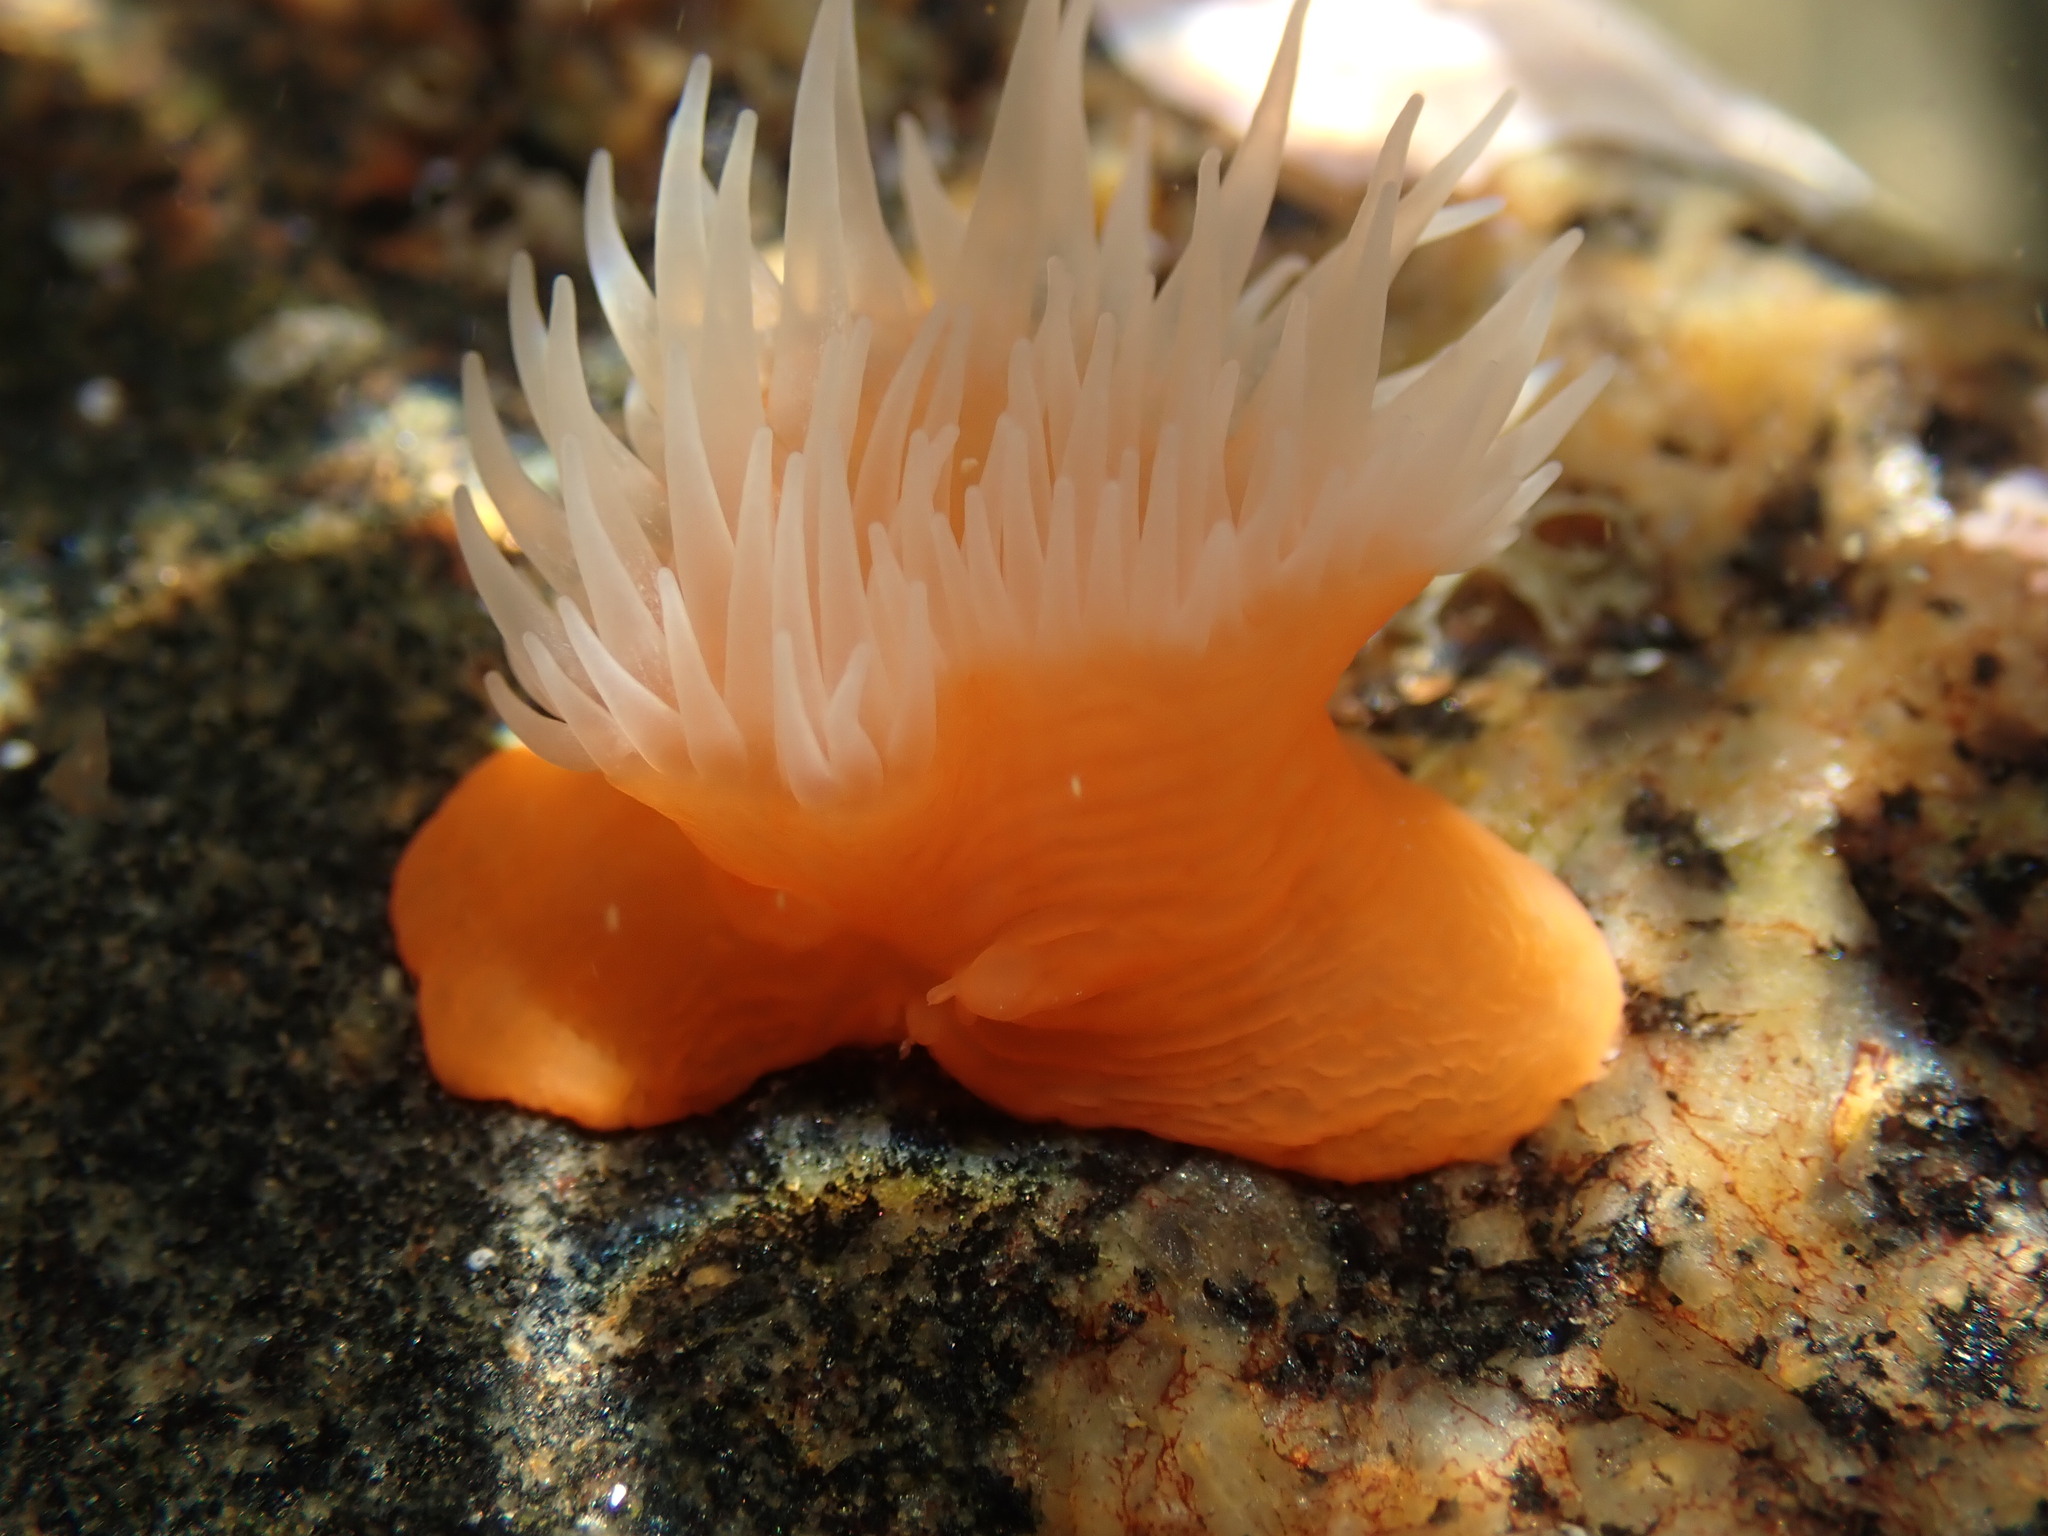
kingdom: Animalia
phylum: Cnidaria
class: Anthozoa
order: Actiniaria
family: Sagartiidae
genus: Habrosanthus
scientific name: Habrosanthus bathamae
